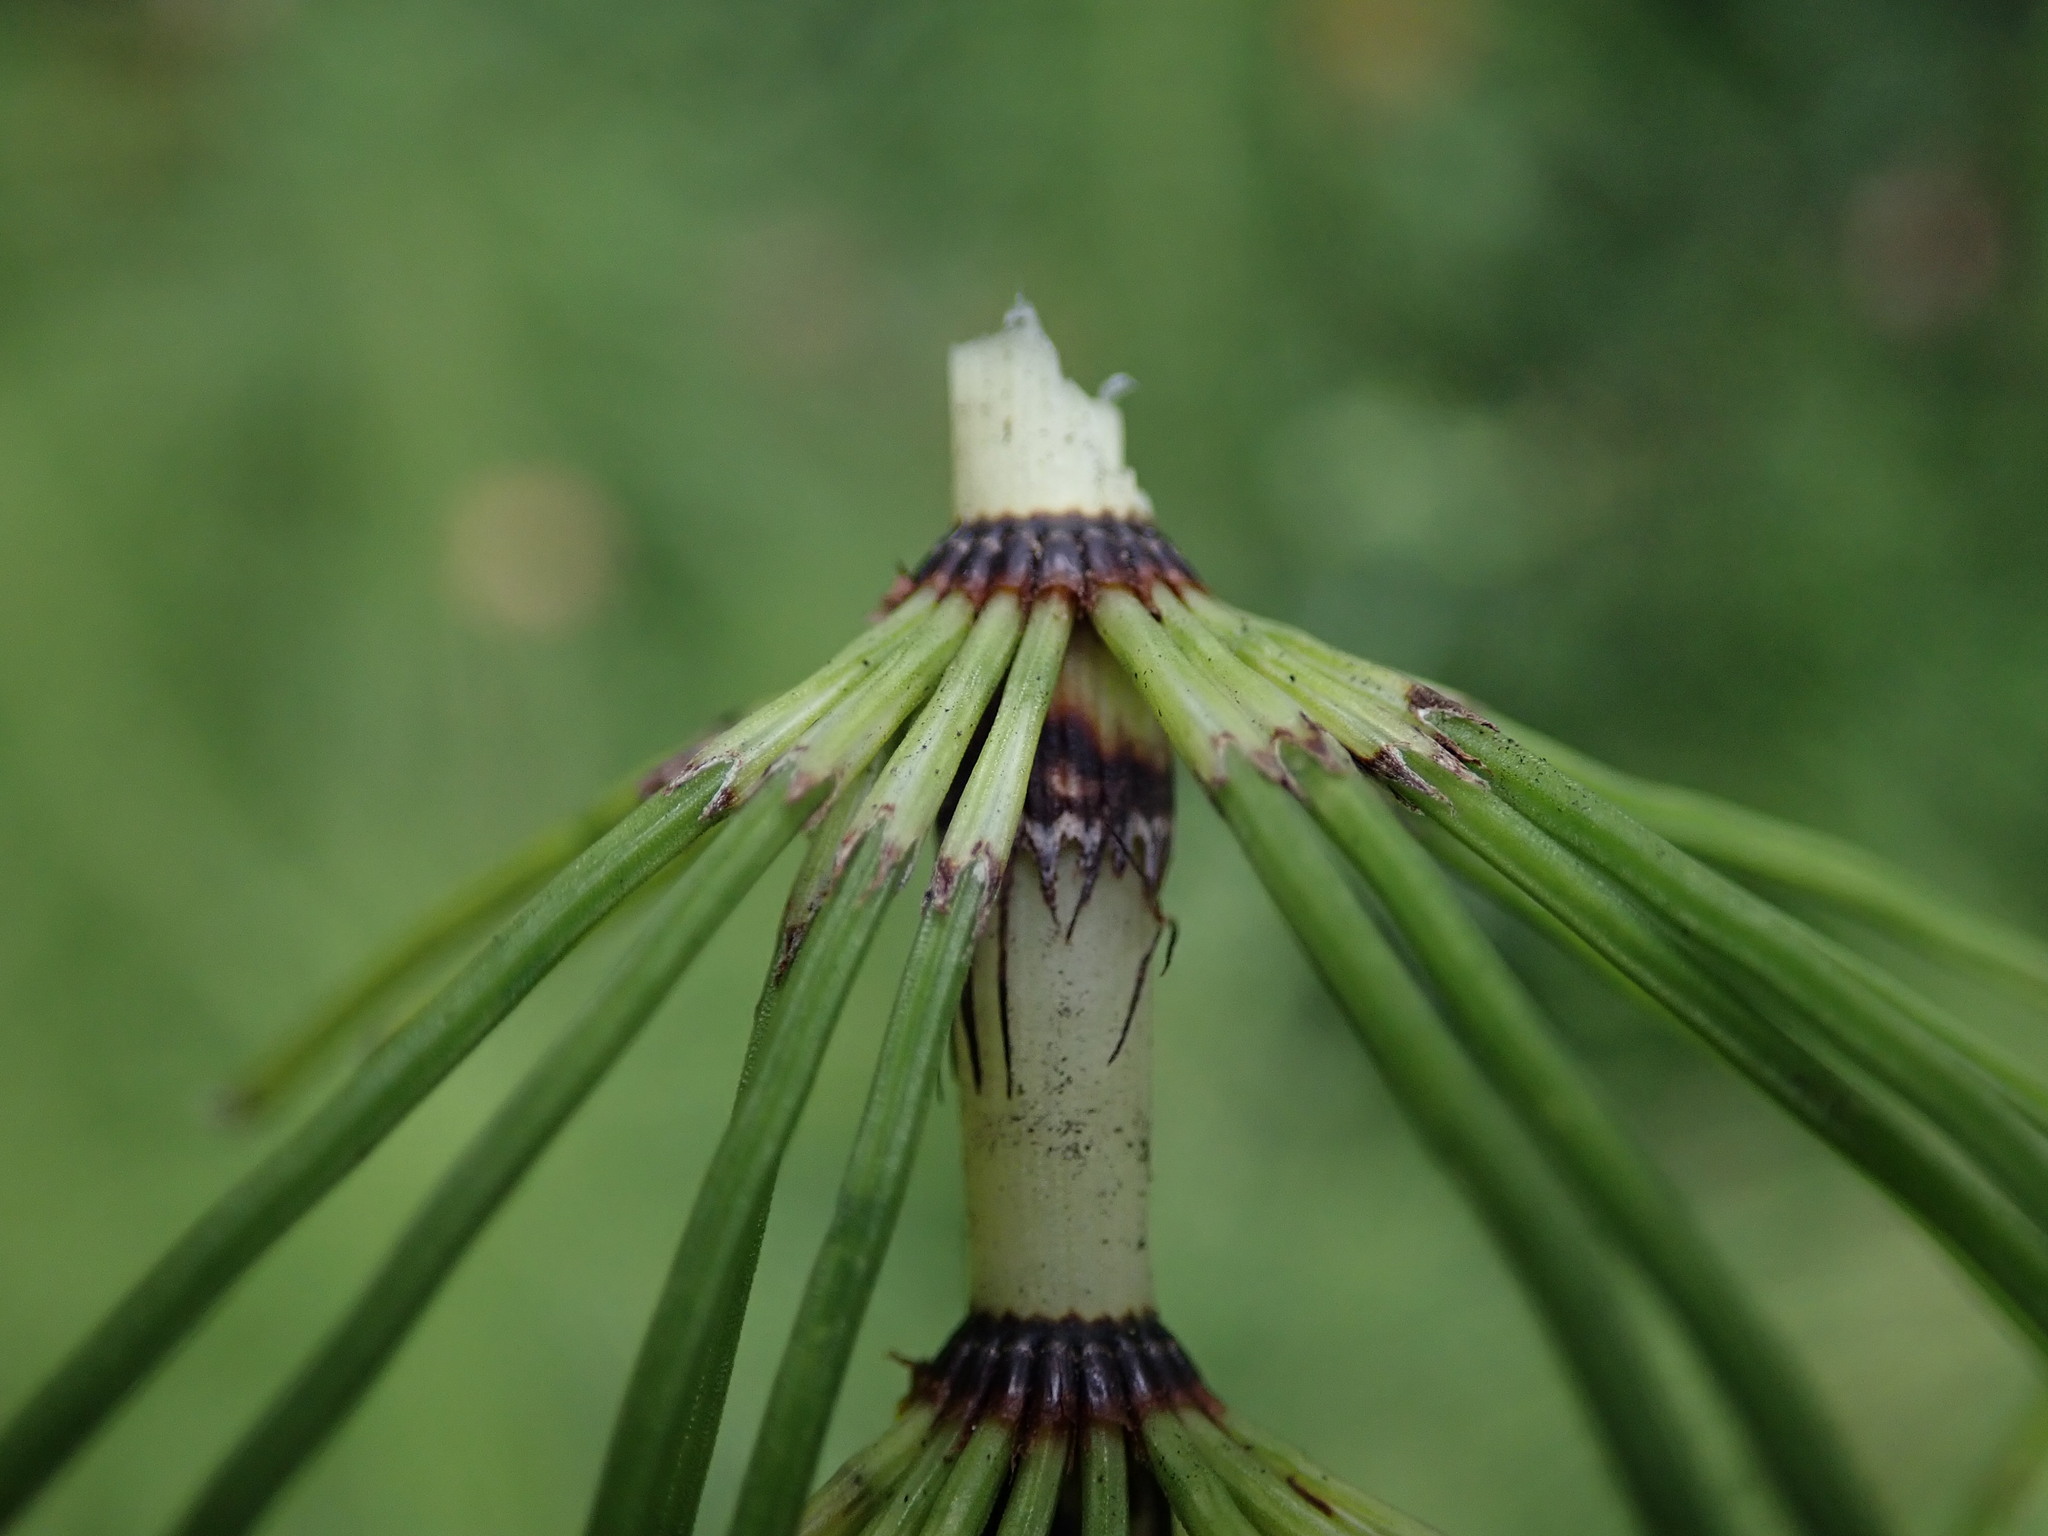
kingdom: Plantae
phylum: Tracheophyta
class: Polypodiopsida
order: Equisetales
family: Equisetaceae
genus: Equisetum
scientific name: Equisetum telmateia
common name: Great horsetail
